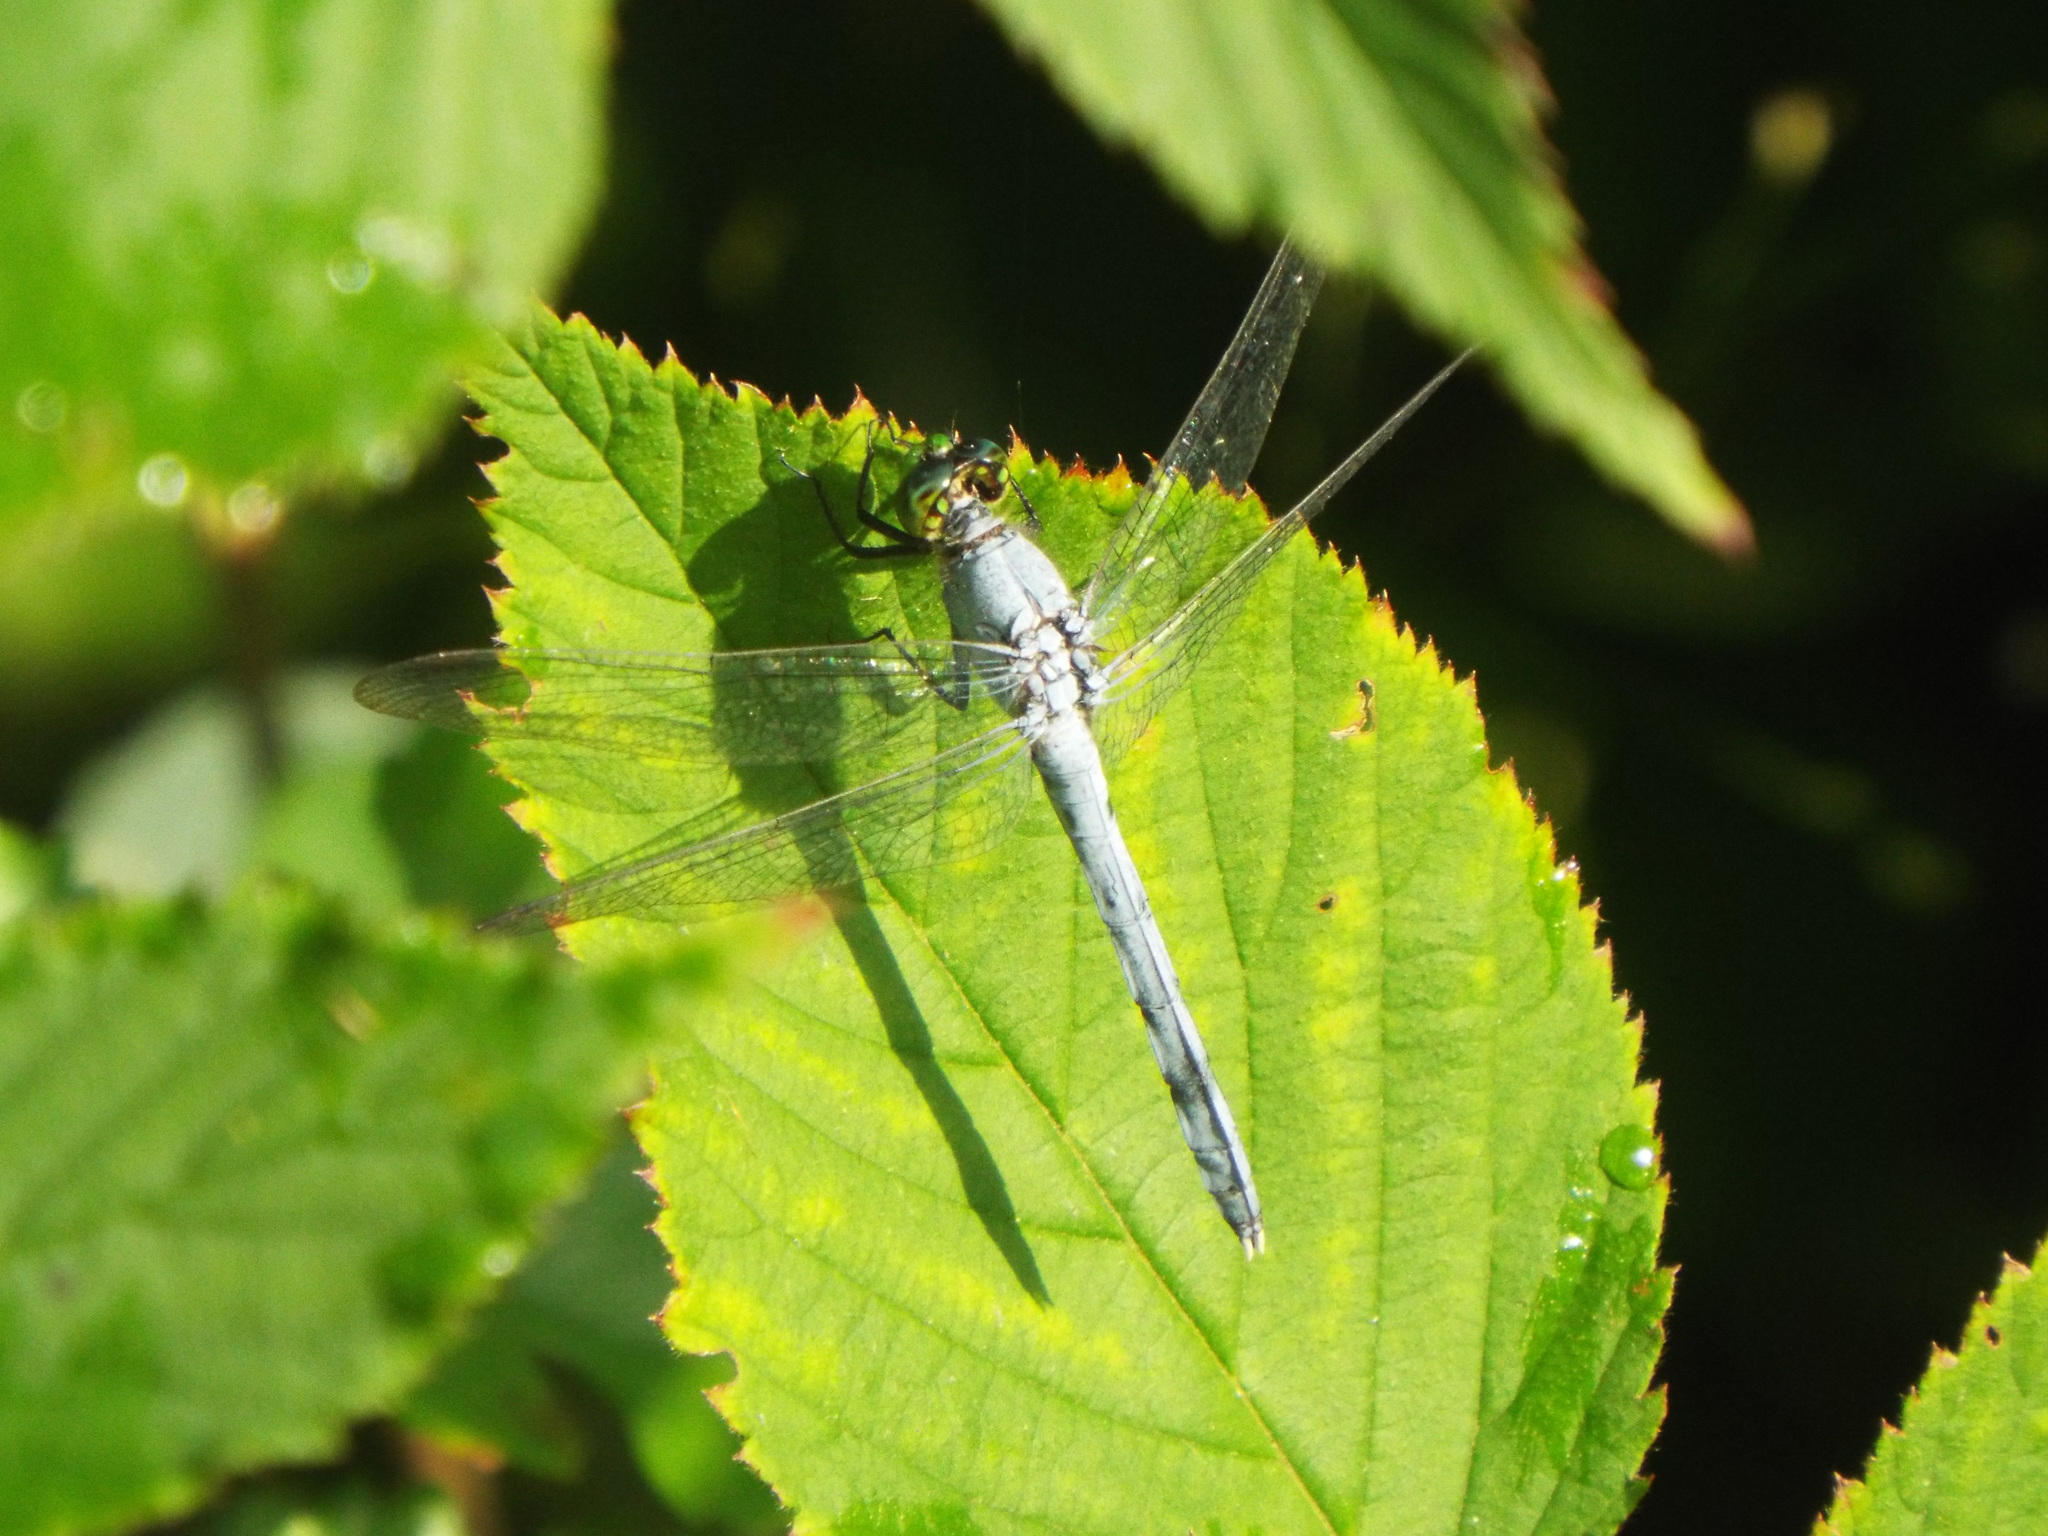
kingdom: Animalia
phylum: Arthropoda
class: Insecta
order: Odonata
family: Libellulidae
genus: Erythemis
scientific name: Erythemis simplicicollis
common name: Eastern pondhawk
